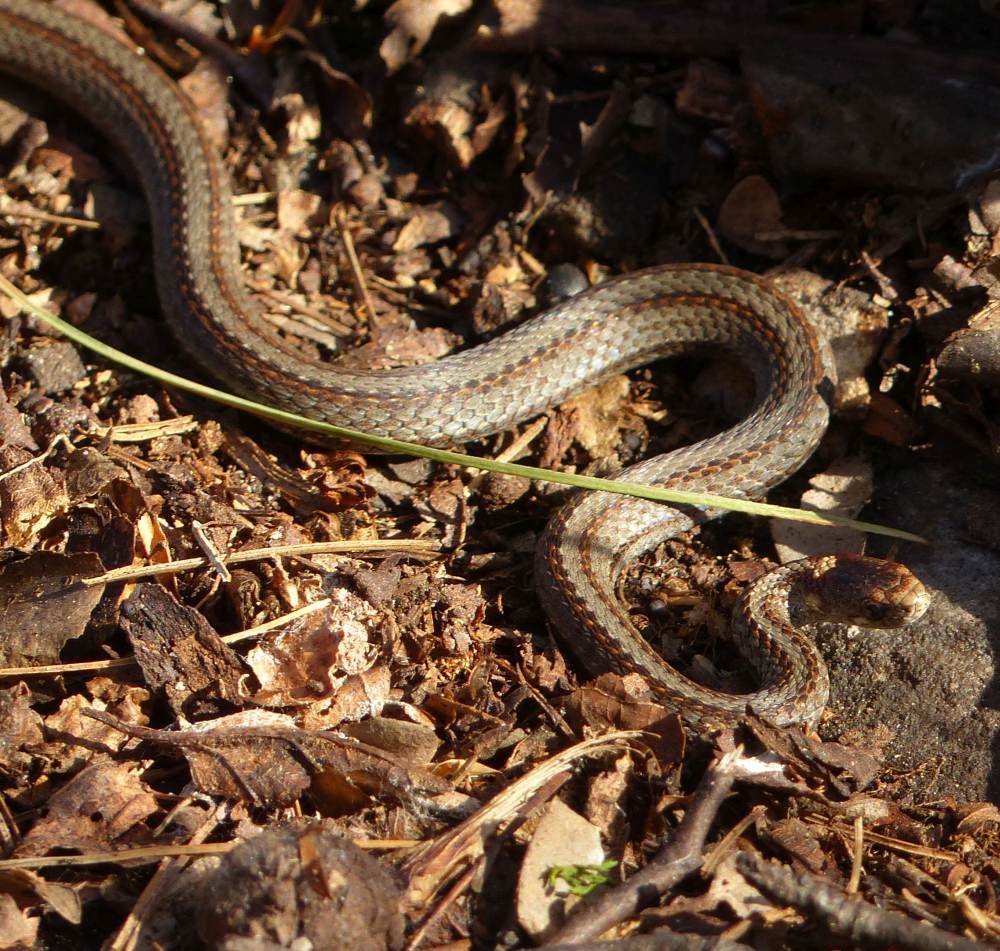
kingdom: Animalia
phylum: Chordata
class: Squamata
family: Colubridae
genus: Storeria
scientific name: Storeria occipitomaculata
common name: Redbelly snake
